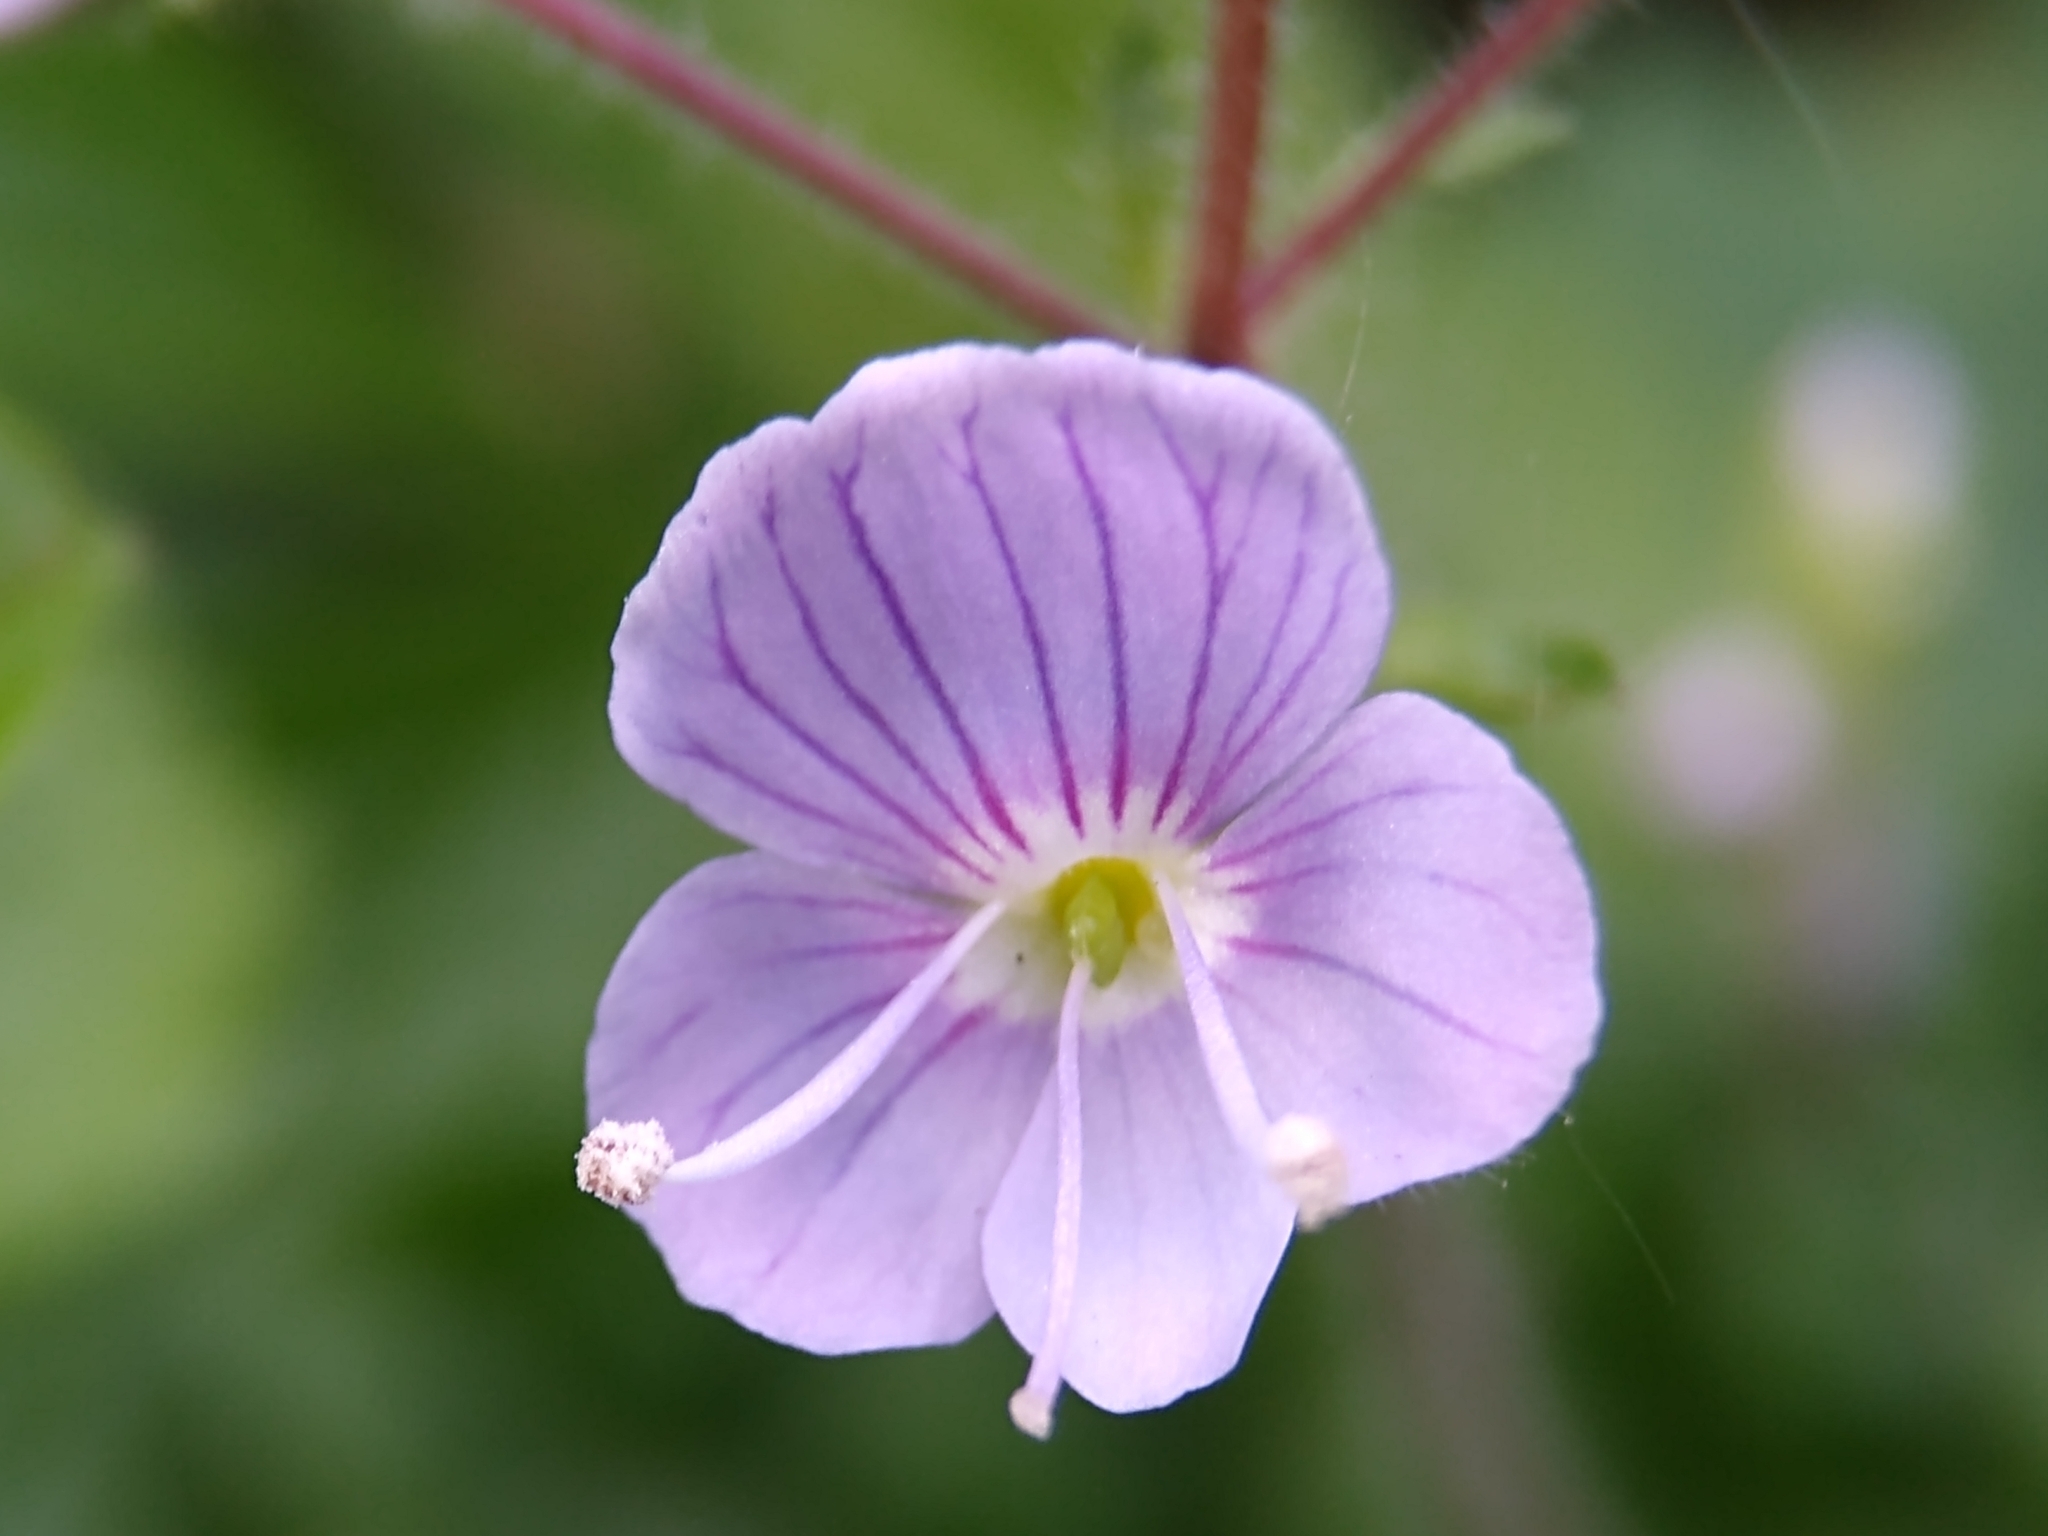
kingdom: Plantae
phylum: Tracheophyta
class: Magnoliopsida
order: Lamiales
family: Plantaginaceae
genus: Veronica
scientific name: Veronica montana
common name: Wood speedwell
